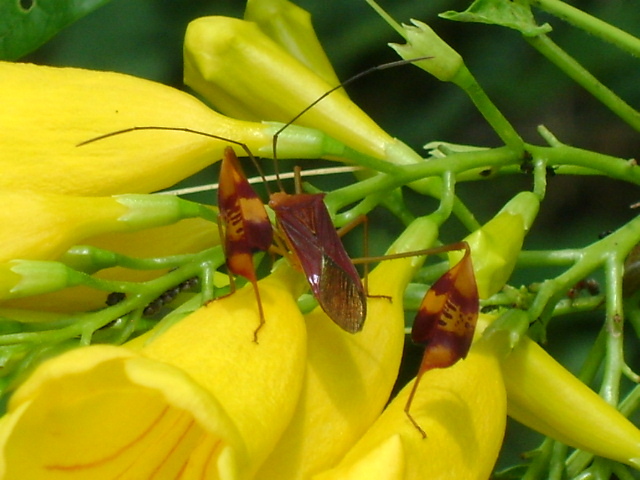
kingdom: Animalia
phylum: Arthropoda
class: Insecta
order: Hemiptera
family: Coreidae
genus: Bitta
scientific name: Bitta
